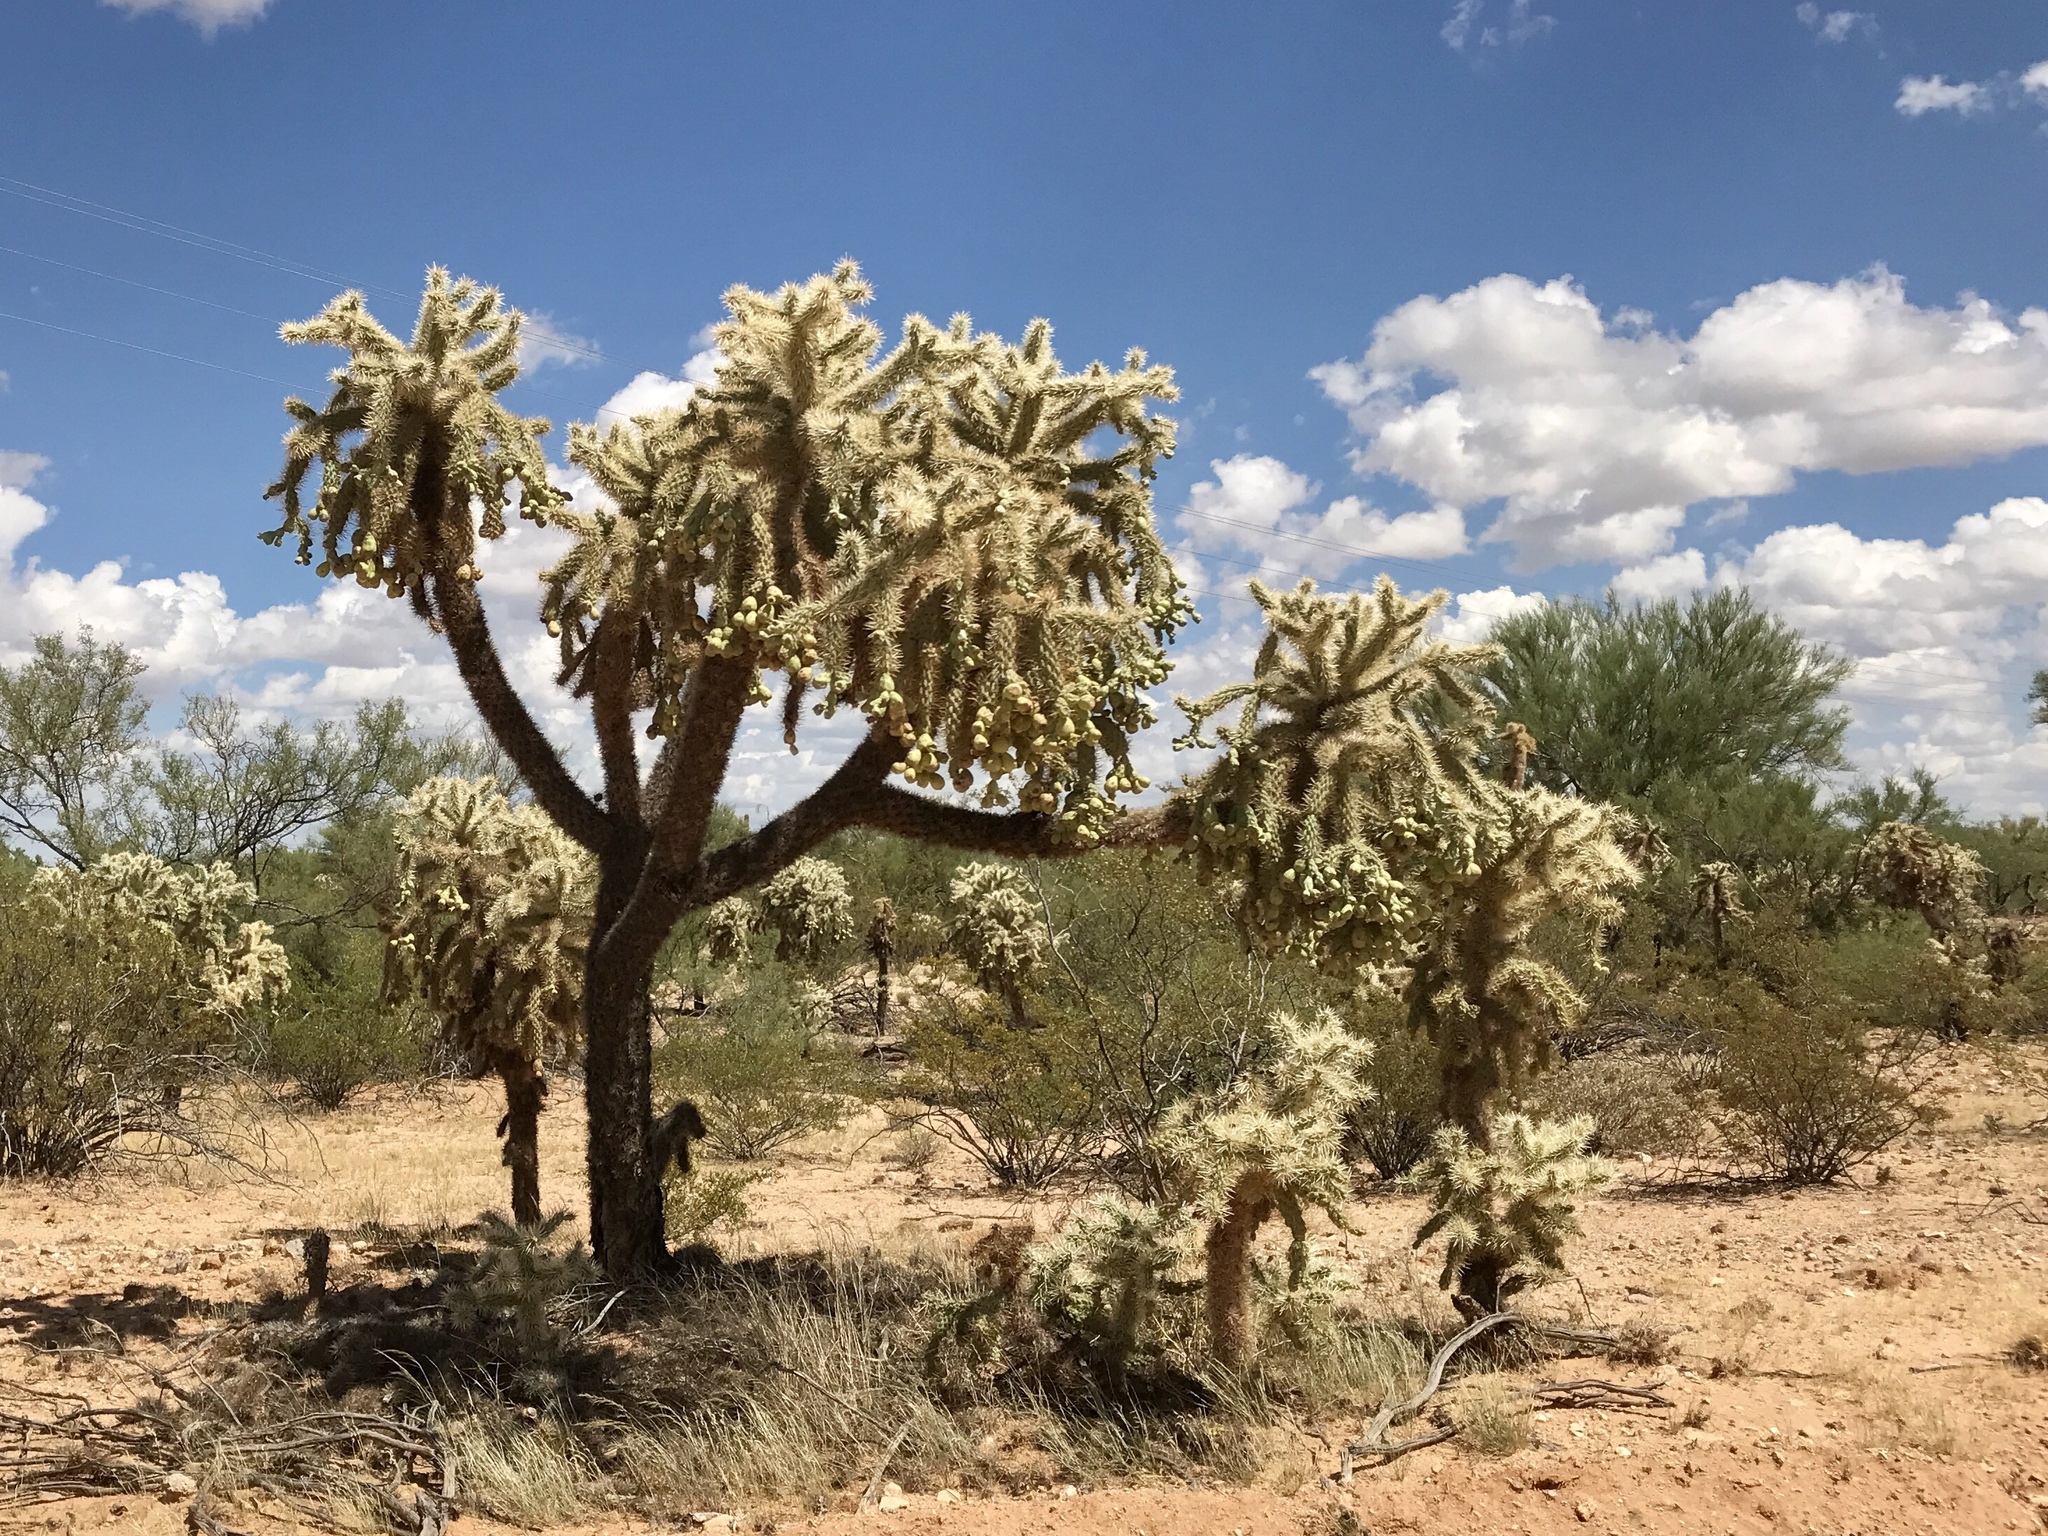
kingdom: Plantae
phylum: Tracheophyta
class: Magnoliopsida
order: Caryophyllales
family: Cactaceae
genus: Cylindropuntia
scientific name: Cylindropuntia fulgida
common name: Jumping cholla
